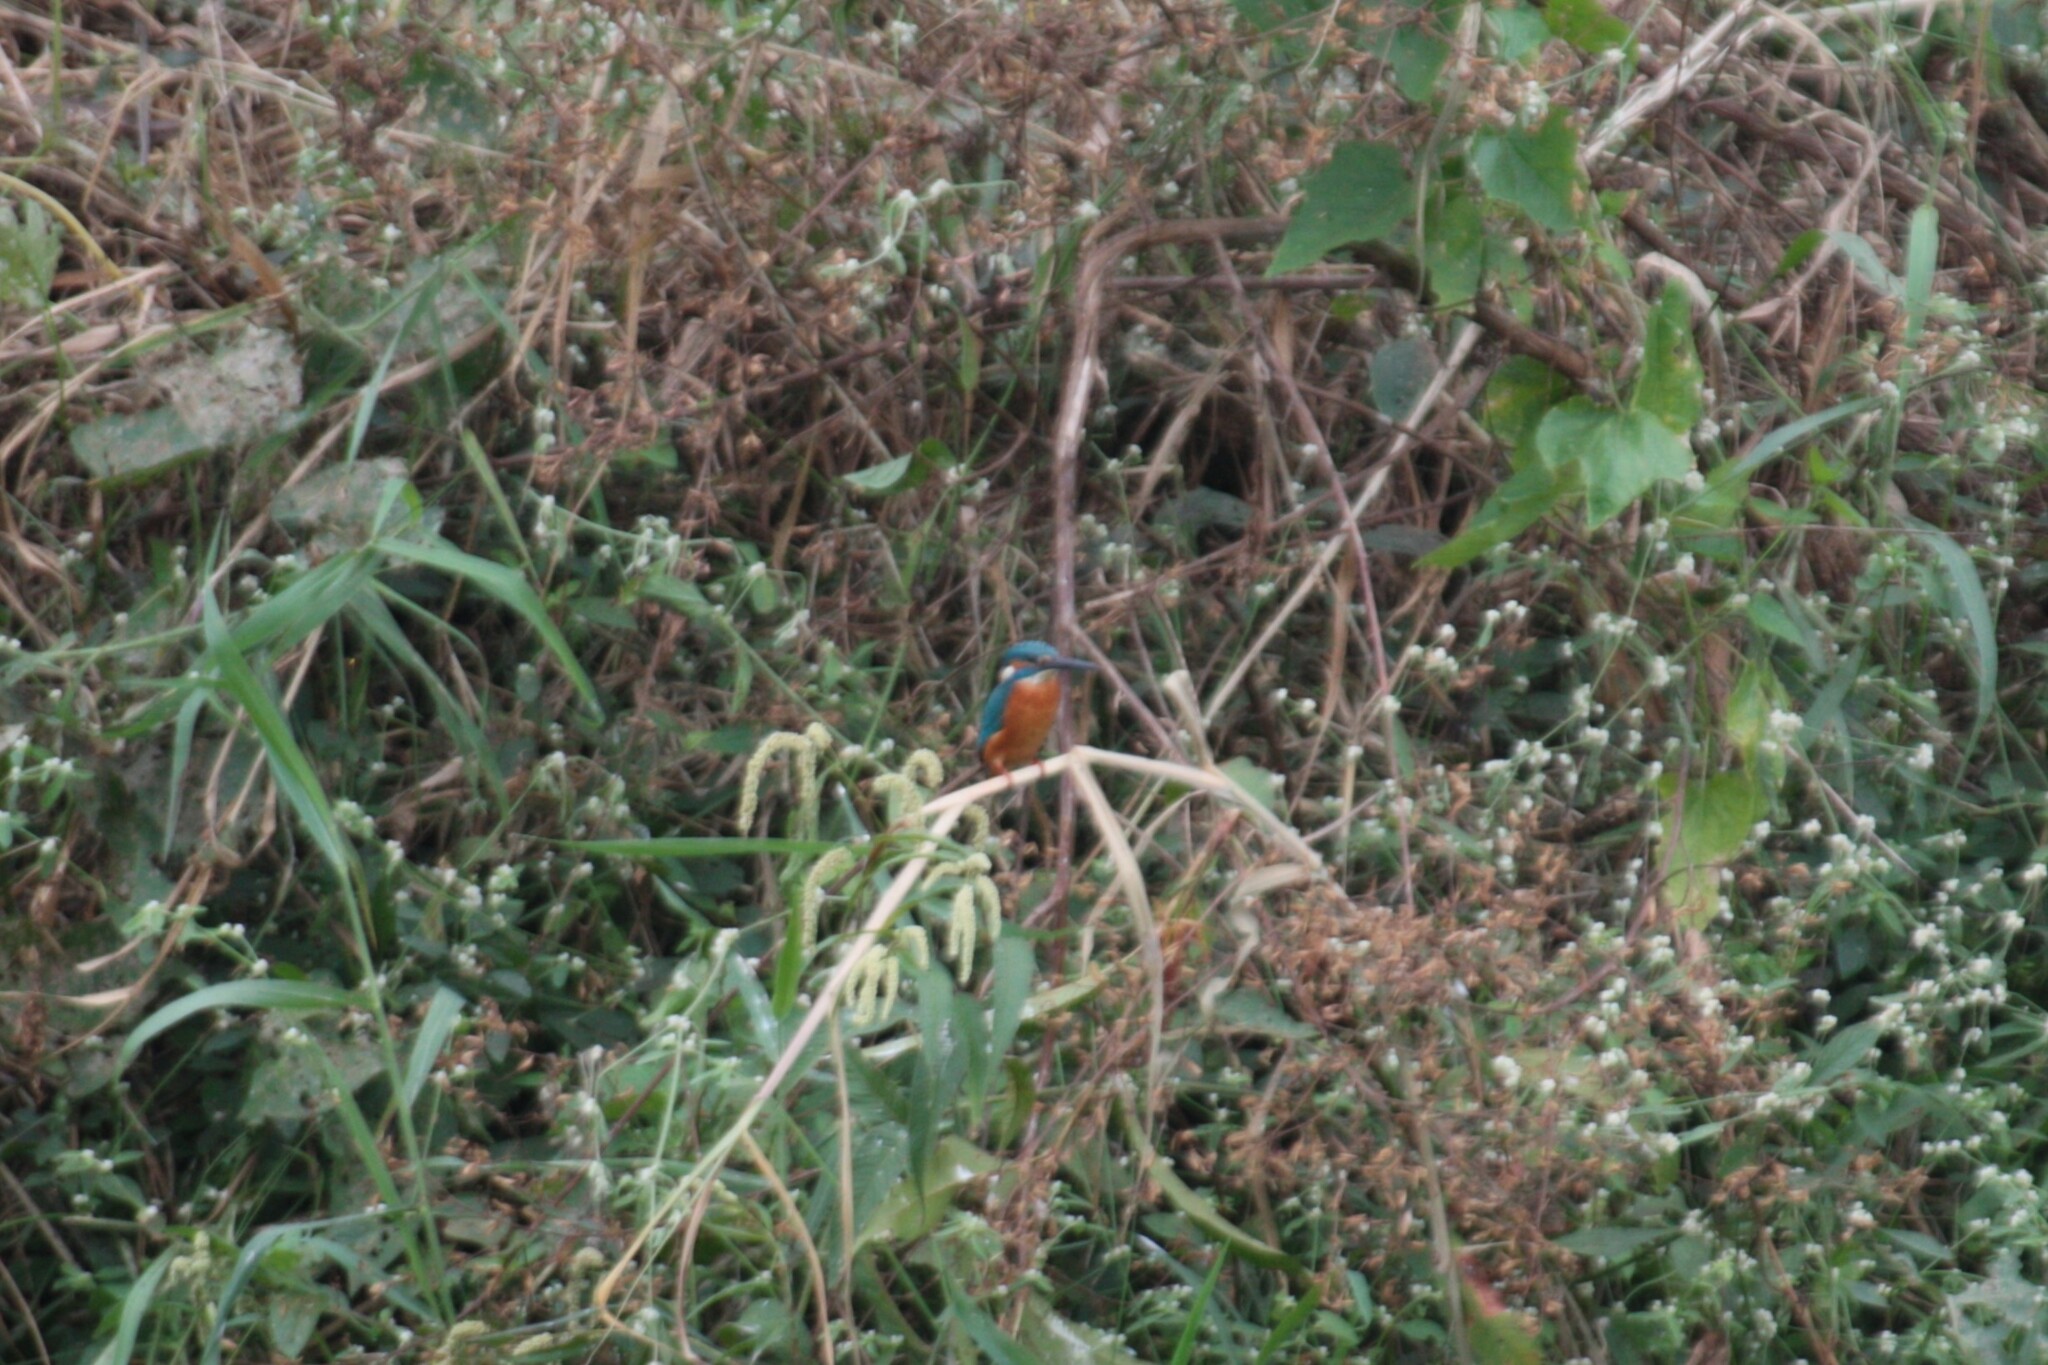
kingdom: Animalia
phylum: Chordata
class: Aves
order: Coraciiformes
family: Alcedinidae
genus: Alcedo
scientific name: Alcedo atthis
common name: Common kingfisher
